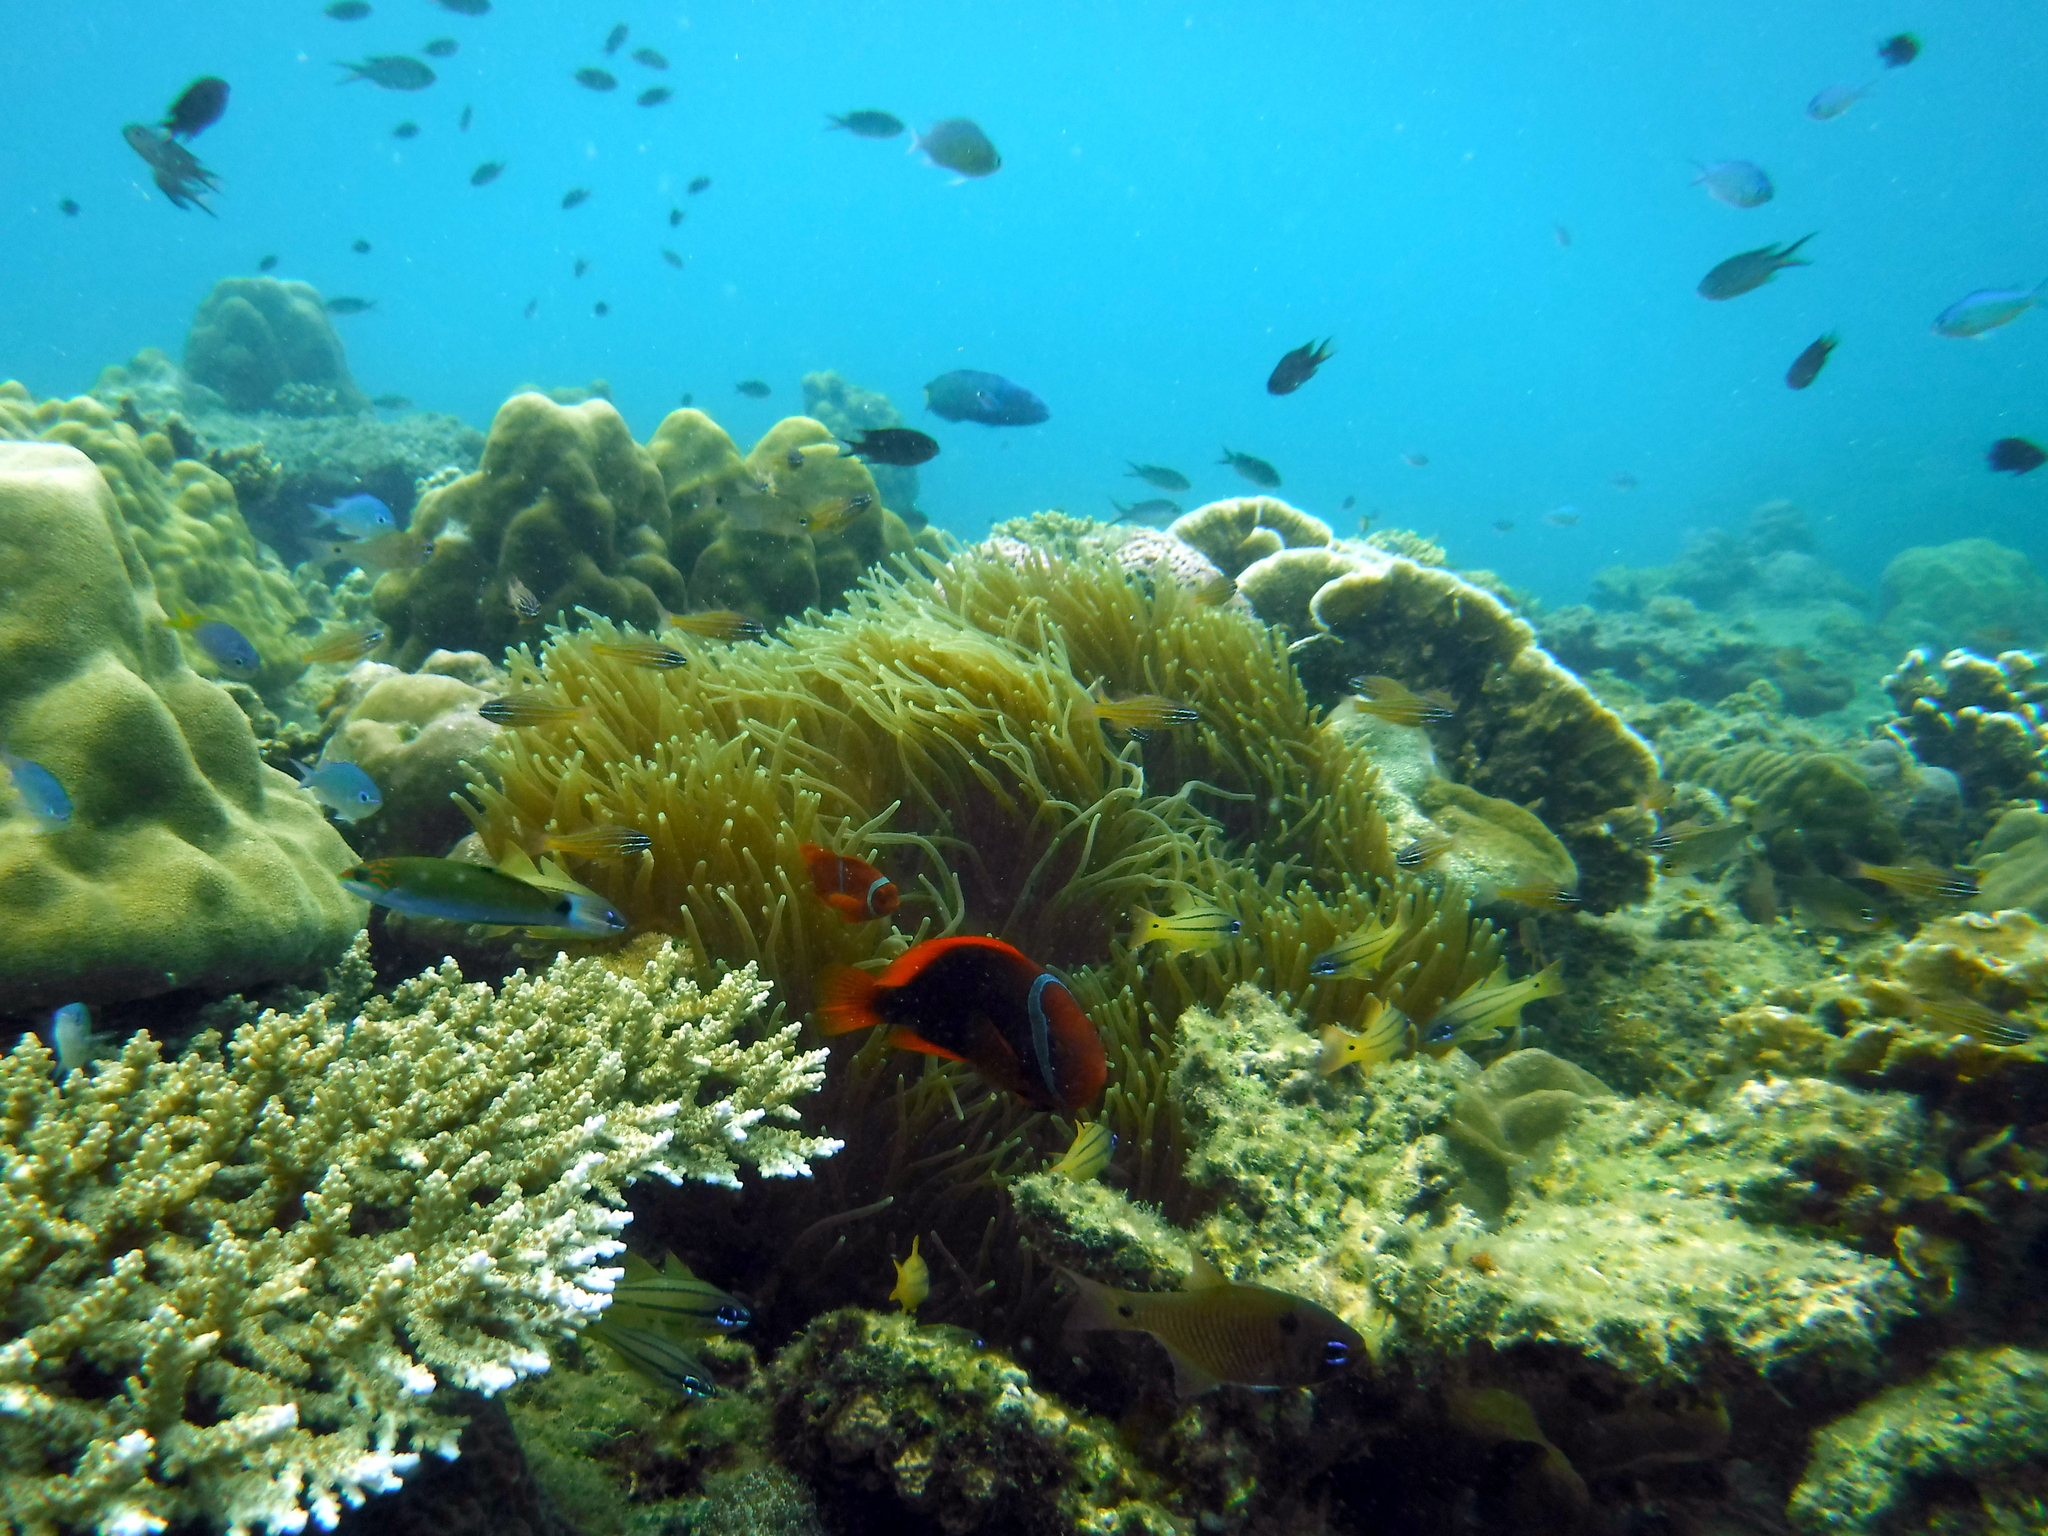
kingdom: Animalia
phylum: Chordata
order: Perciformes
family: Pomacentridae
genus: Amphiprion
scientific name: Amphiprion frenatus
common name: Tomato anemonefish
